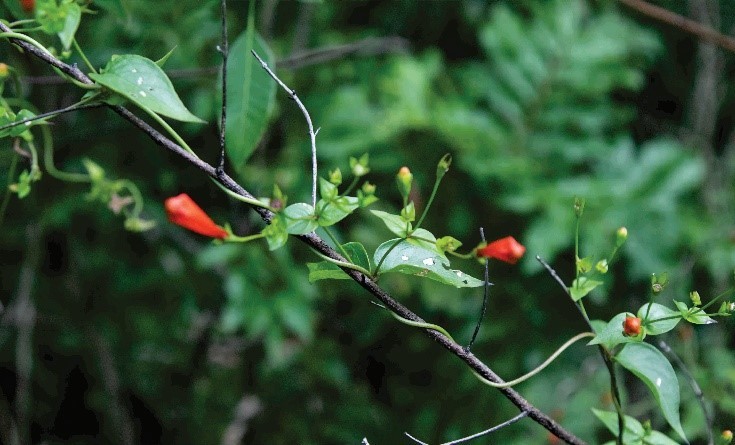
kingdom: Plantae
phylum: Tracheophyta
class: Magnoliopsida
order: Gentianales
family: Rubiaceae
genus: Manettia
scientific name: Manettia cordifolia
